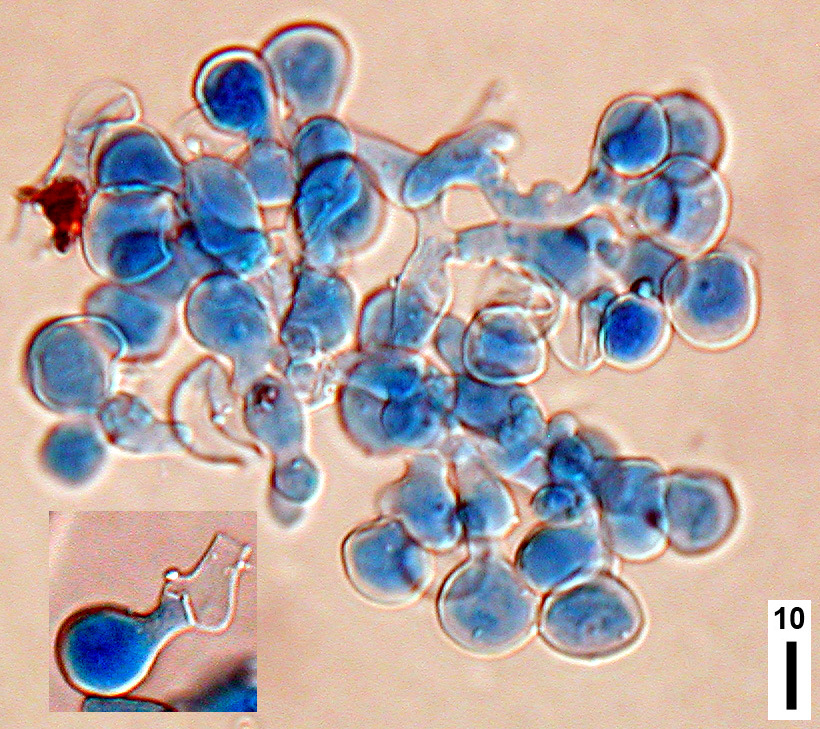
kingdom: Fungi
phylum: Basidiomycota
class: Agaricomycetes
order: Polyporales
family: Meruliaceae
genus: Bulbillomyces
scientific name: Bulbillomyces farinosus
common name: Couscous crust
